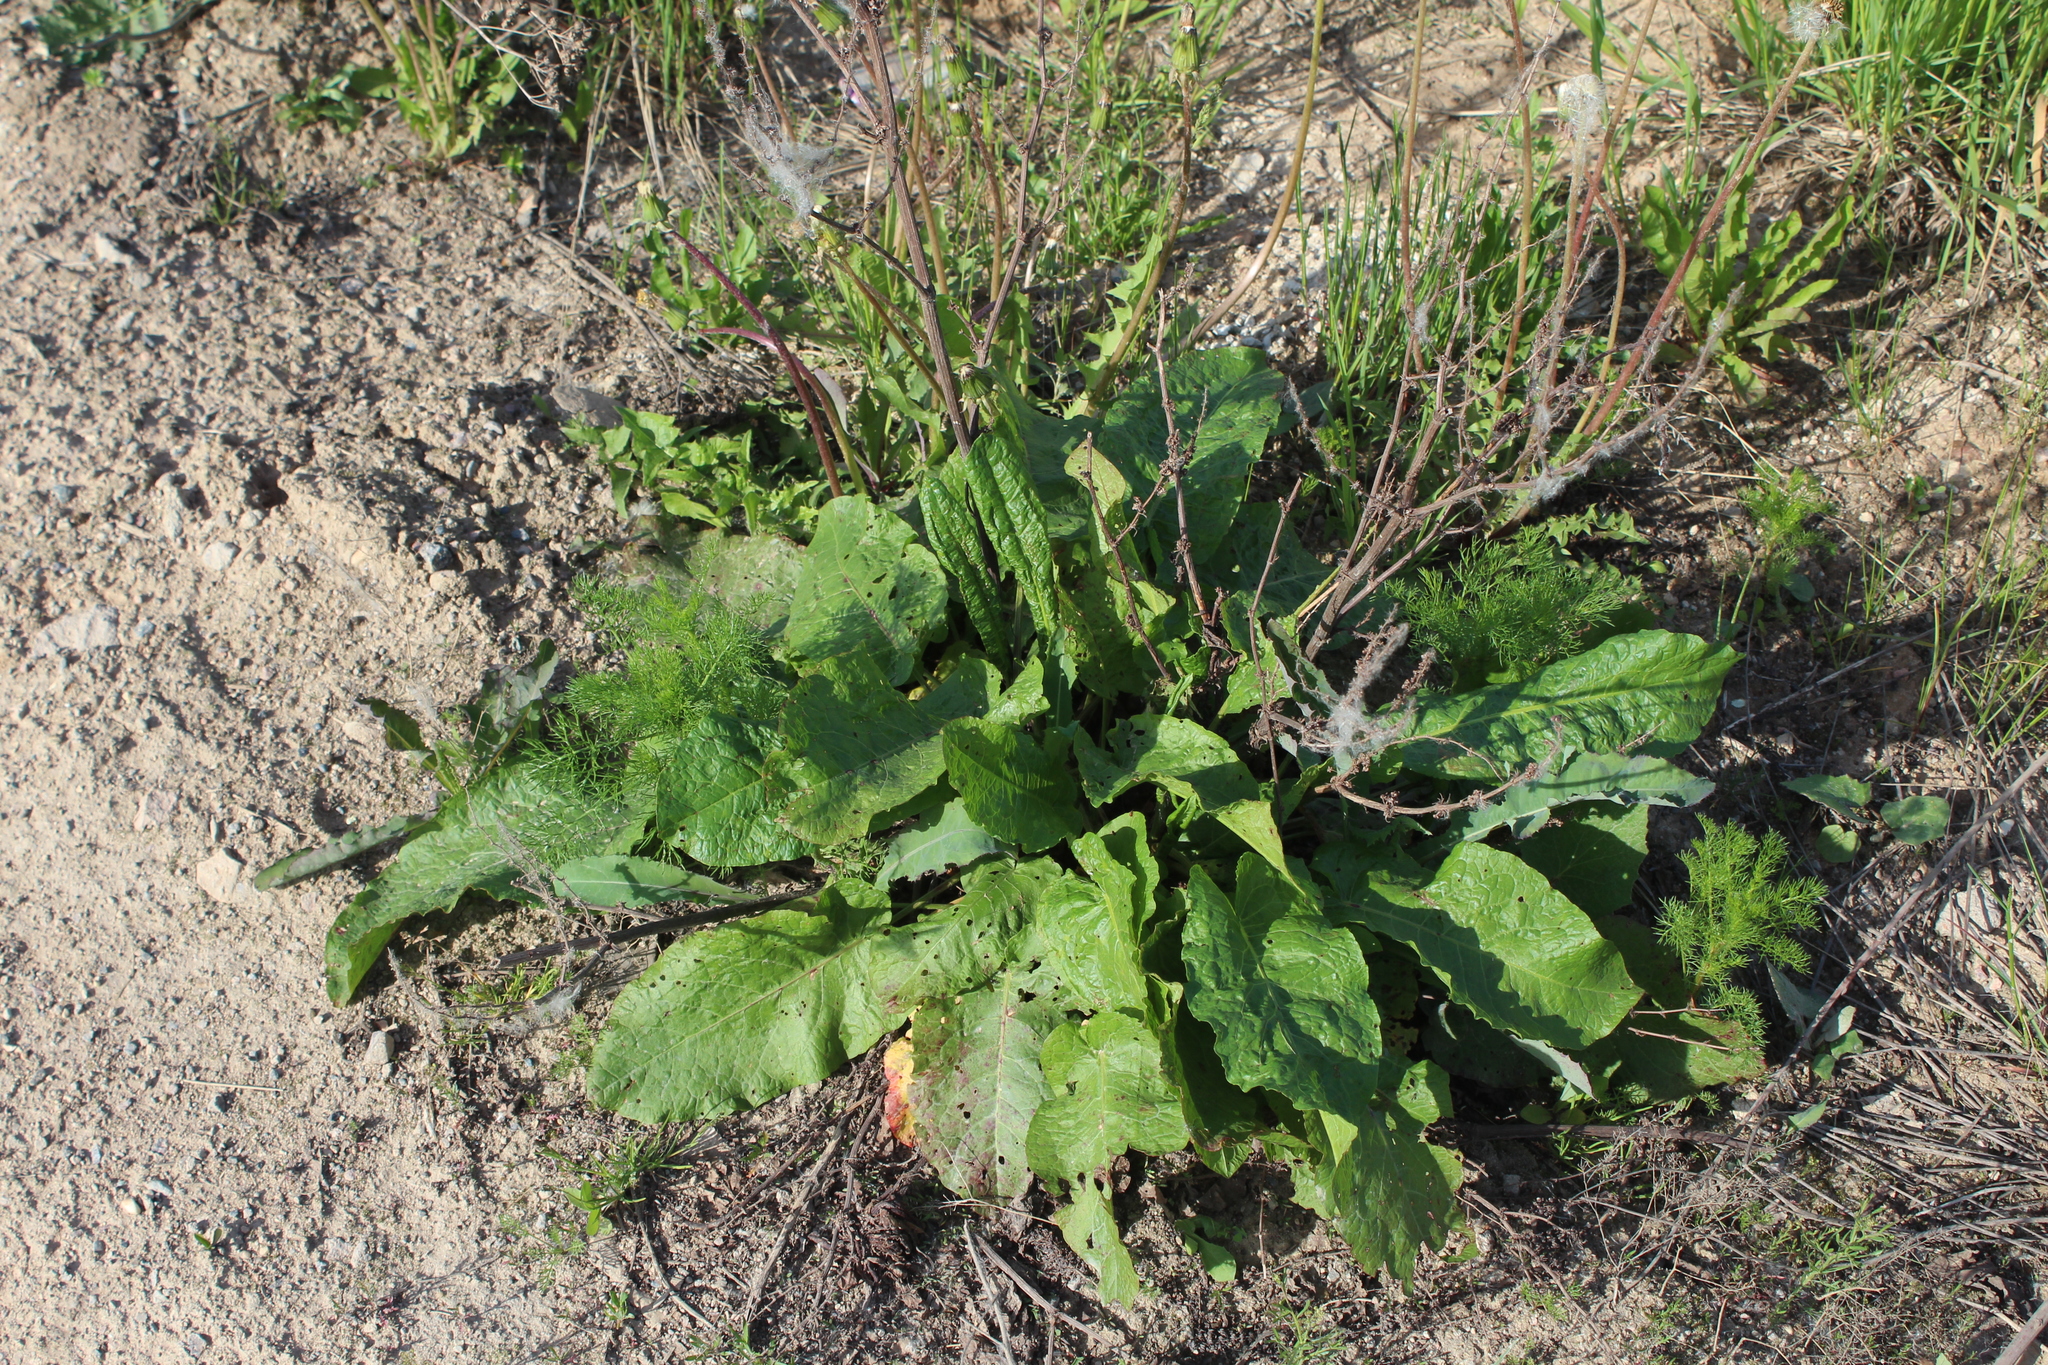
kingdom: Plantae
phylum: Tracheophyta
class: Magnoliopsida
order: Caryophyllales
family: Polygonaceae
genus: Rumex
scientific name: Rumex obtusifolius
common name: Bitter dock
